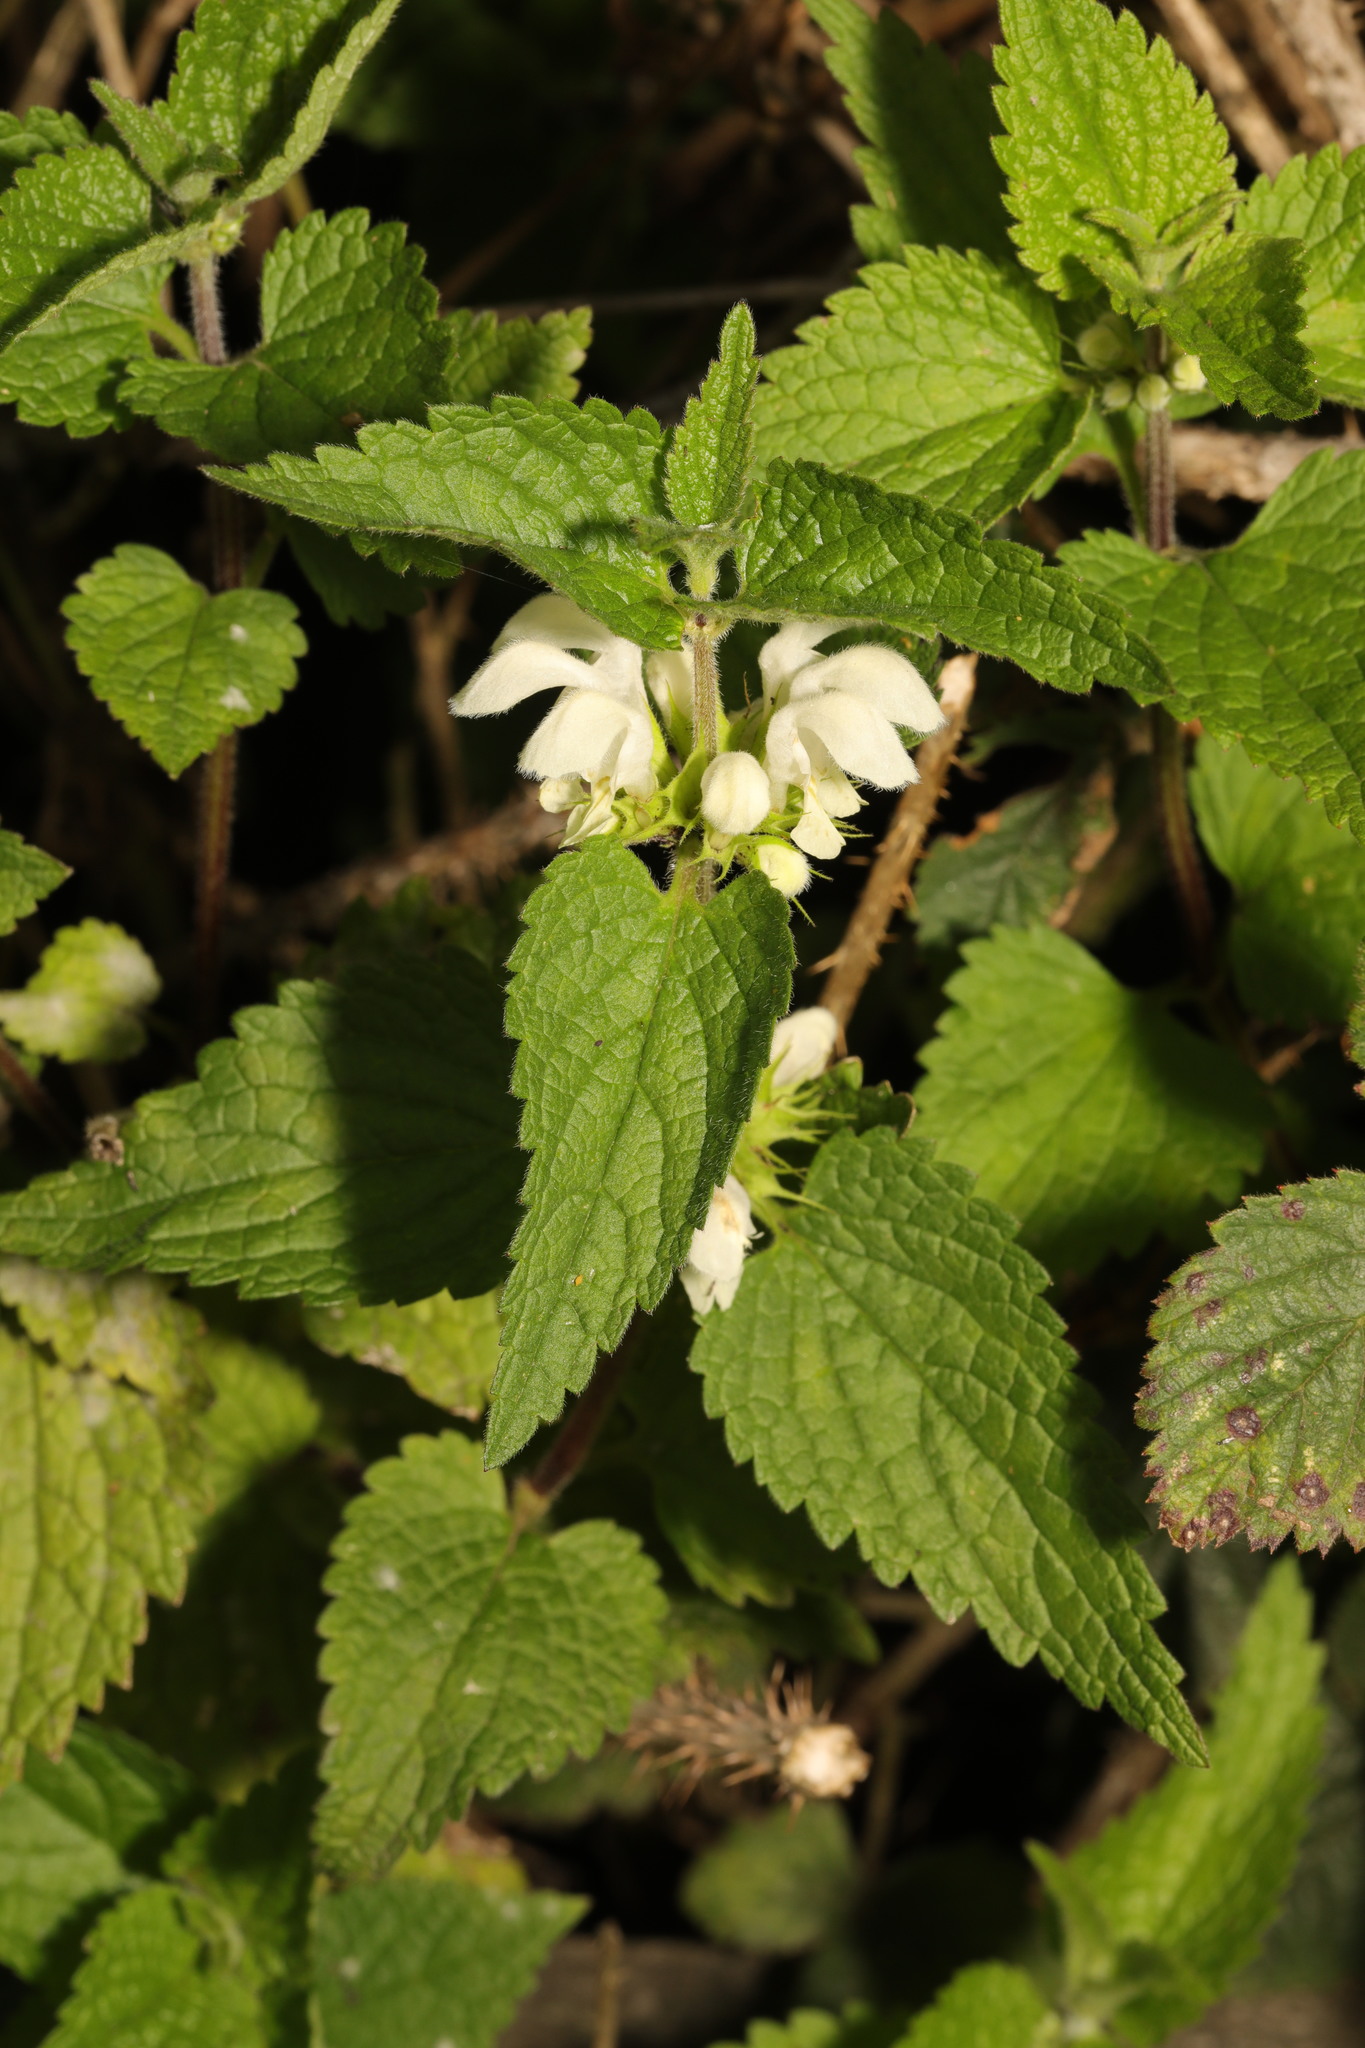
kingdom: Plantae
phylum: Tracheophyta
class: Magnoliopsida
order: Lamiales
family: Lamiaceae
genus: Lamium
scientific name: Lamium album
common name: White dead-nettle
